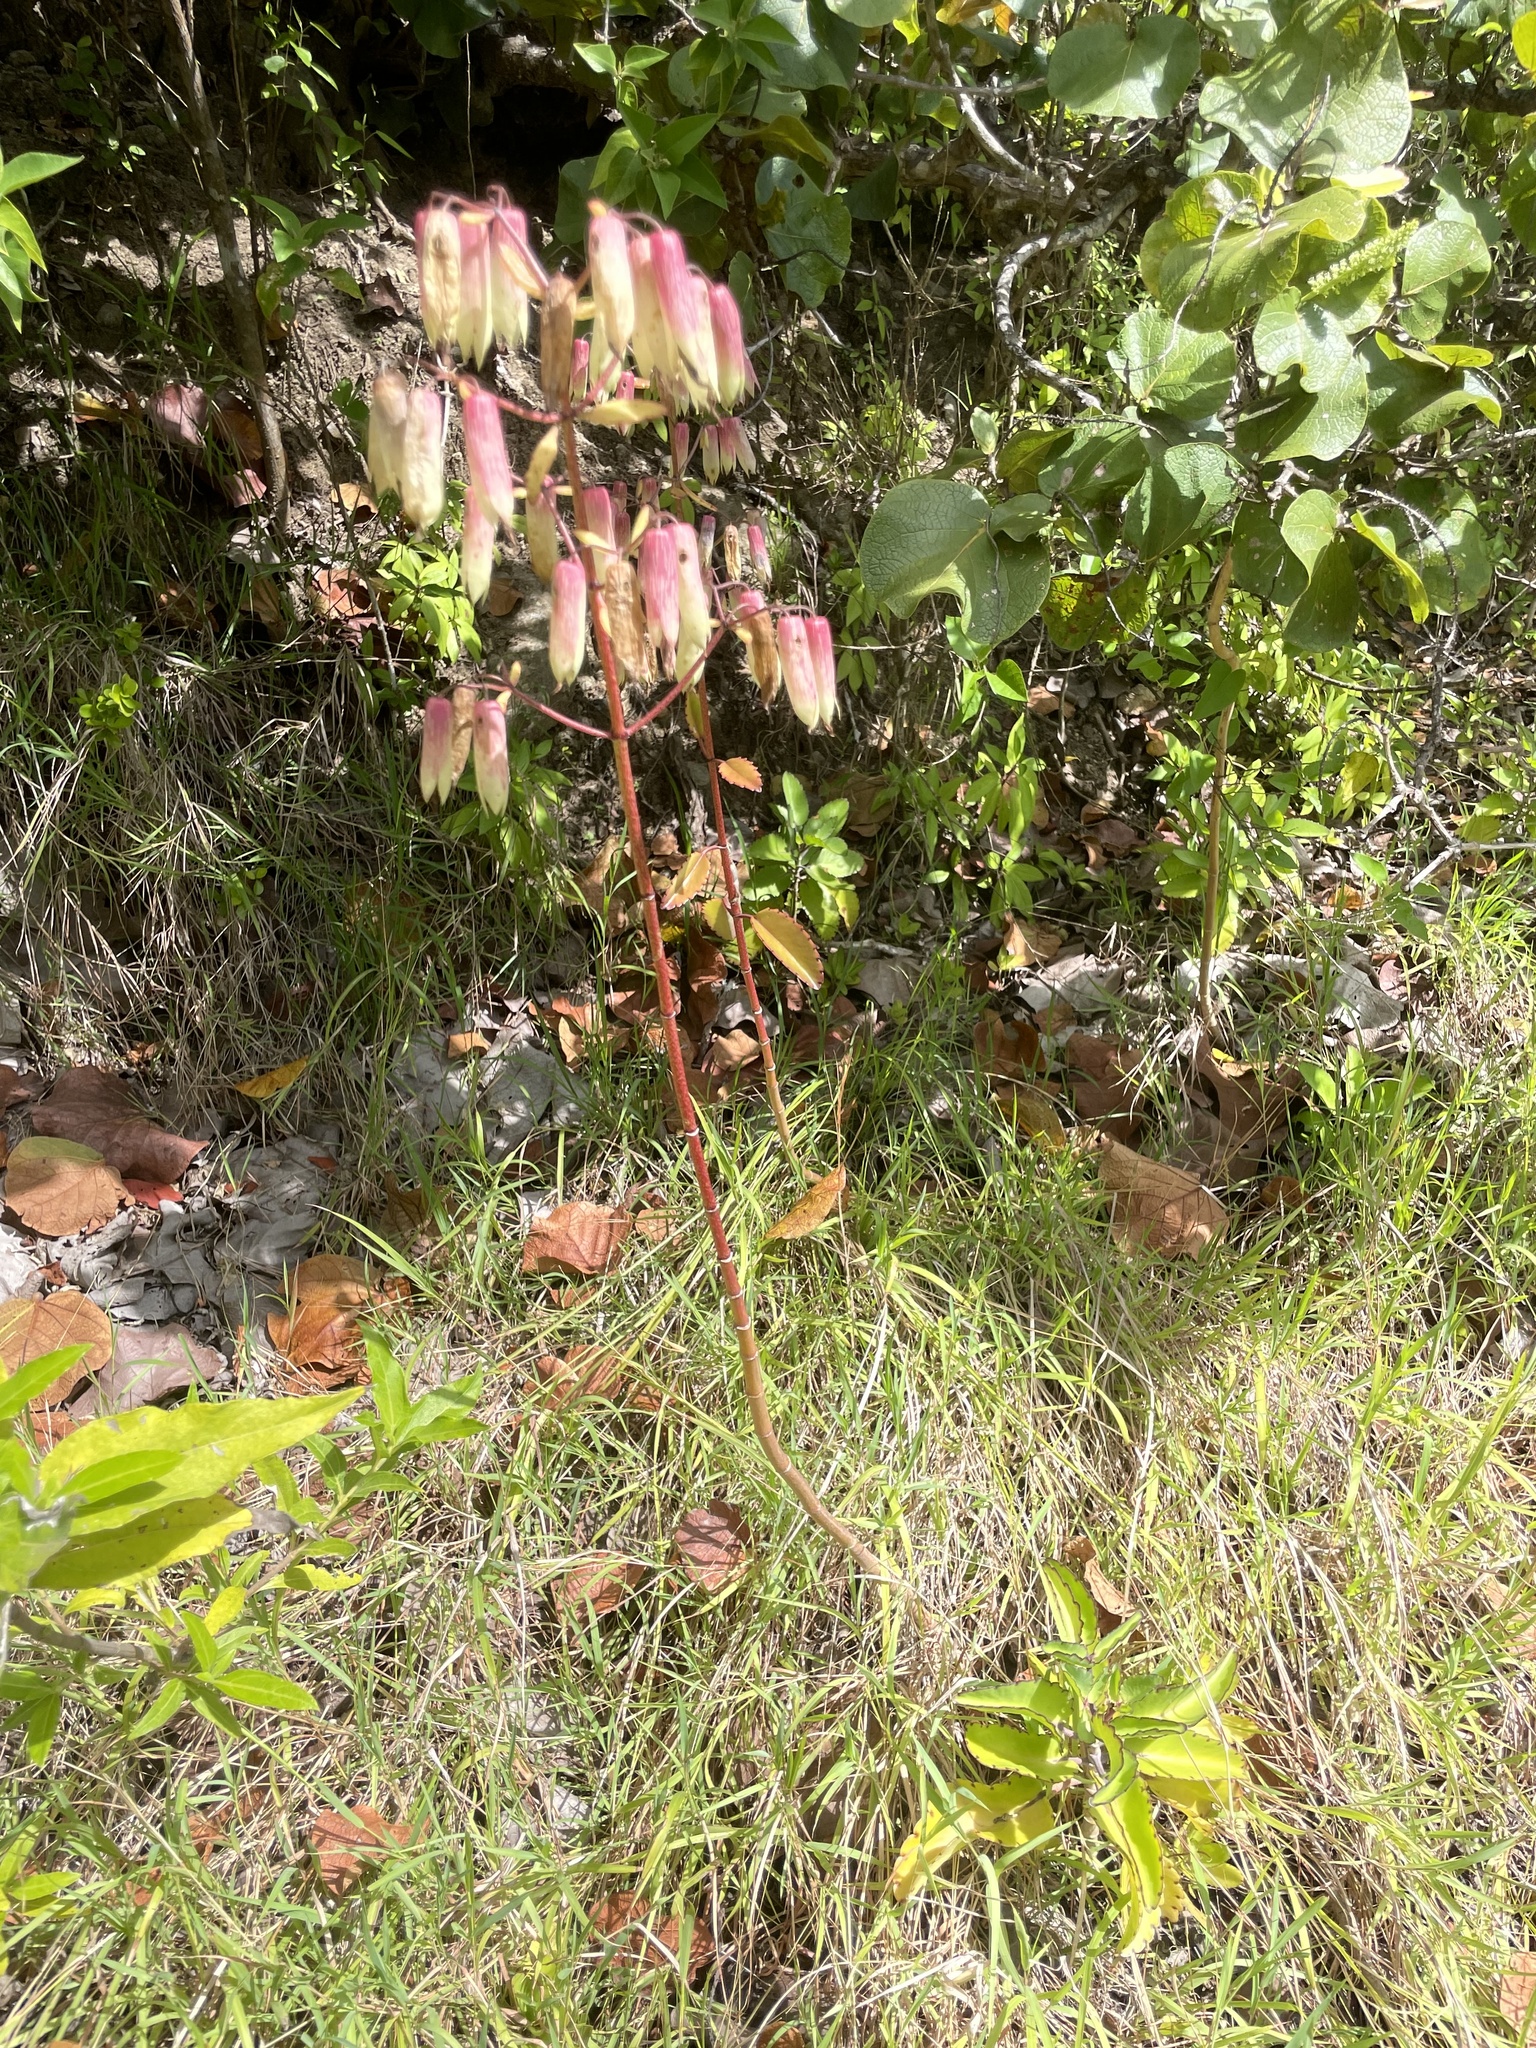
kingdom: Plantae
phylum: Tracheophyta
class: Magnoliopsida
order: Saxifragales
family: Crassulaceae
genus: Kalanchoe
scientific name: Kalanchoe pinnata
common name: Cathedral bells
